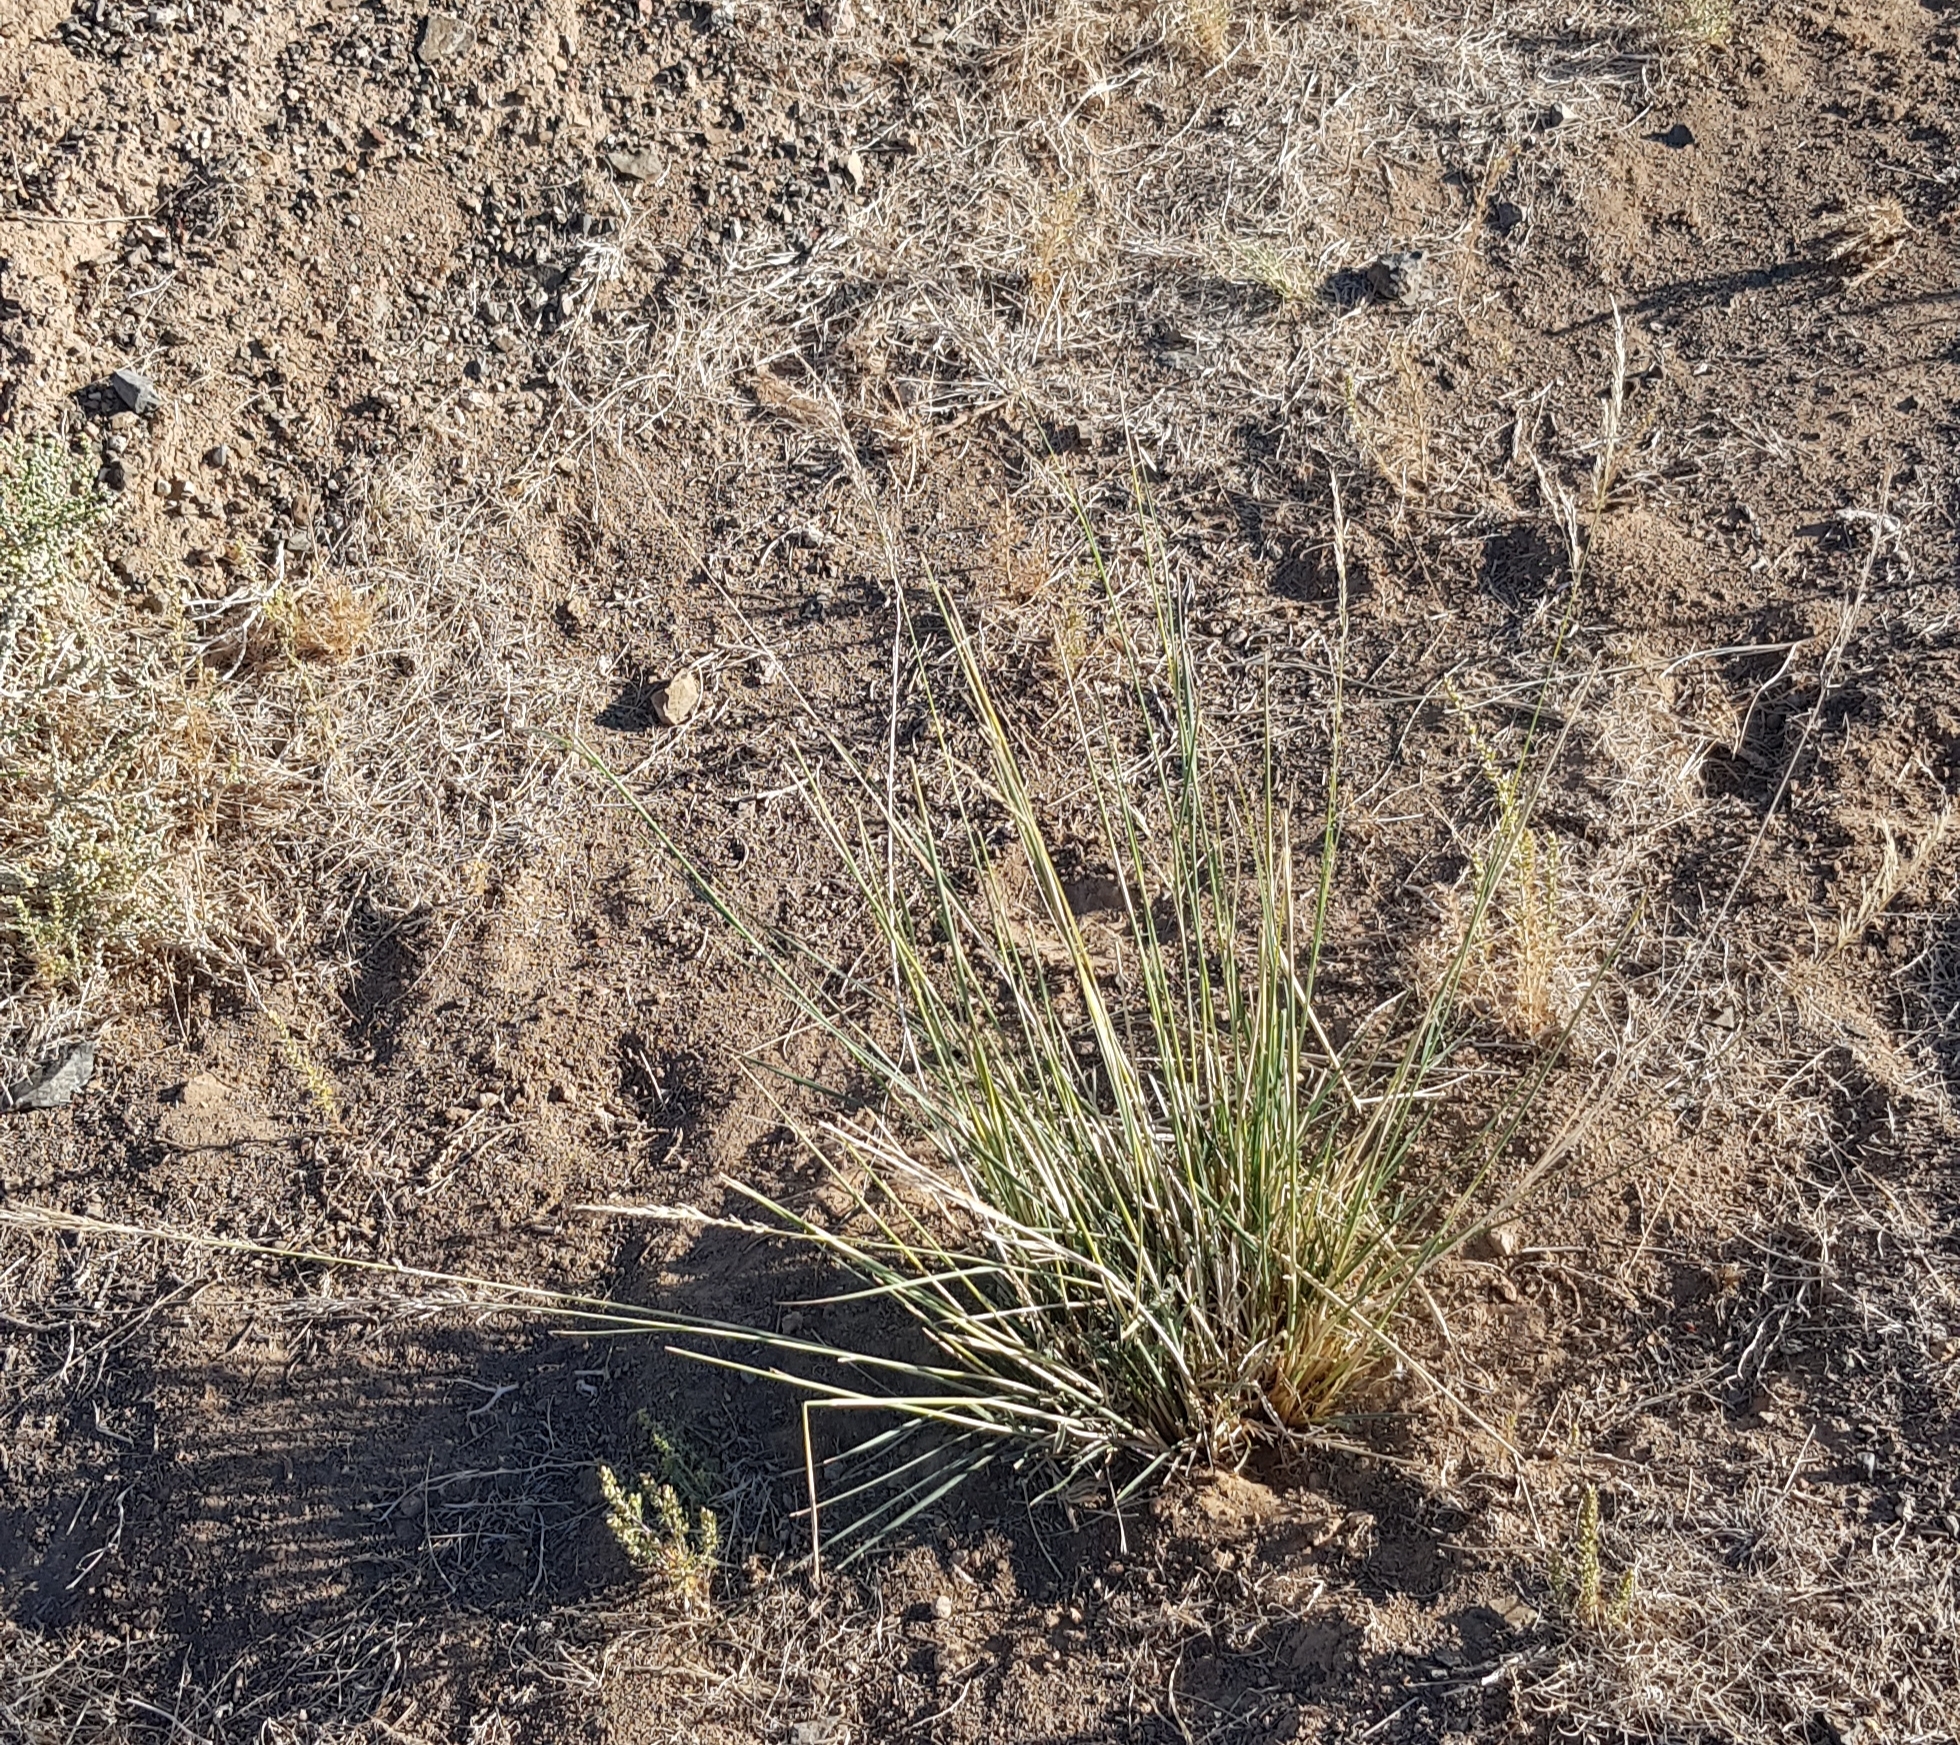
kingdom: Plantae
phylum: Tracheophyta
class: Liliopsida
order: Poales
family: Poaceae
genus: Neotrinia
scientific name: Neotrinia splendens
